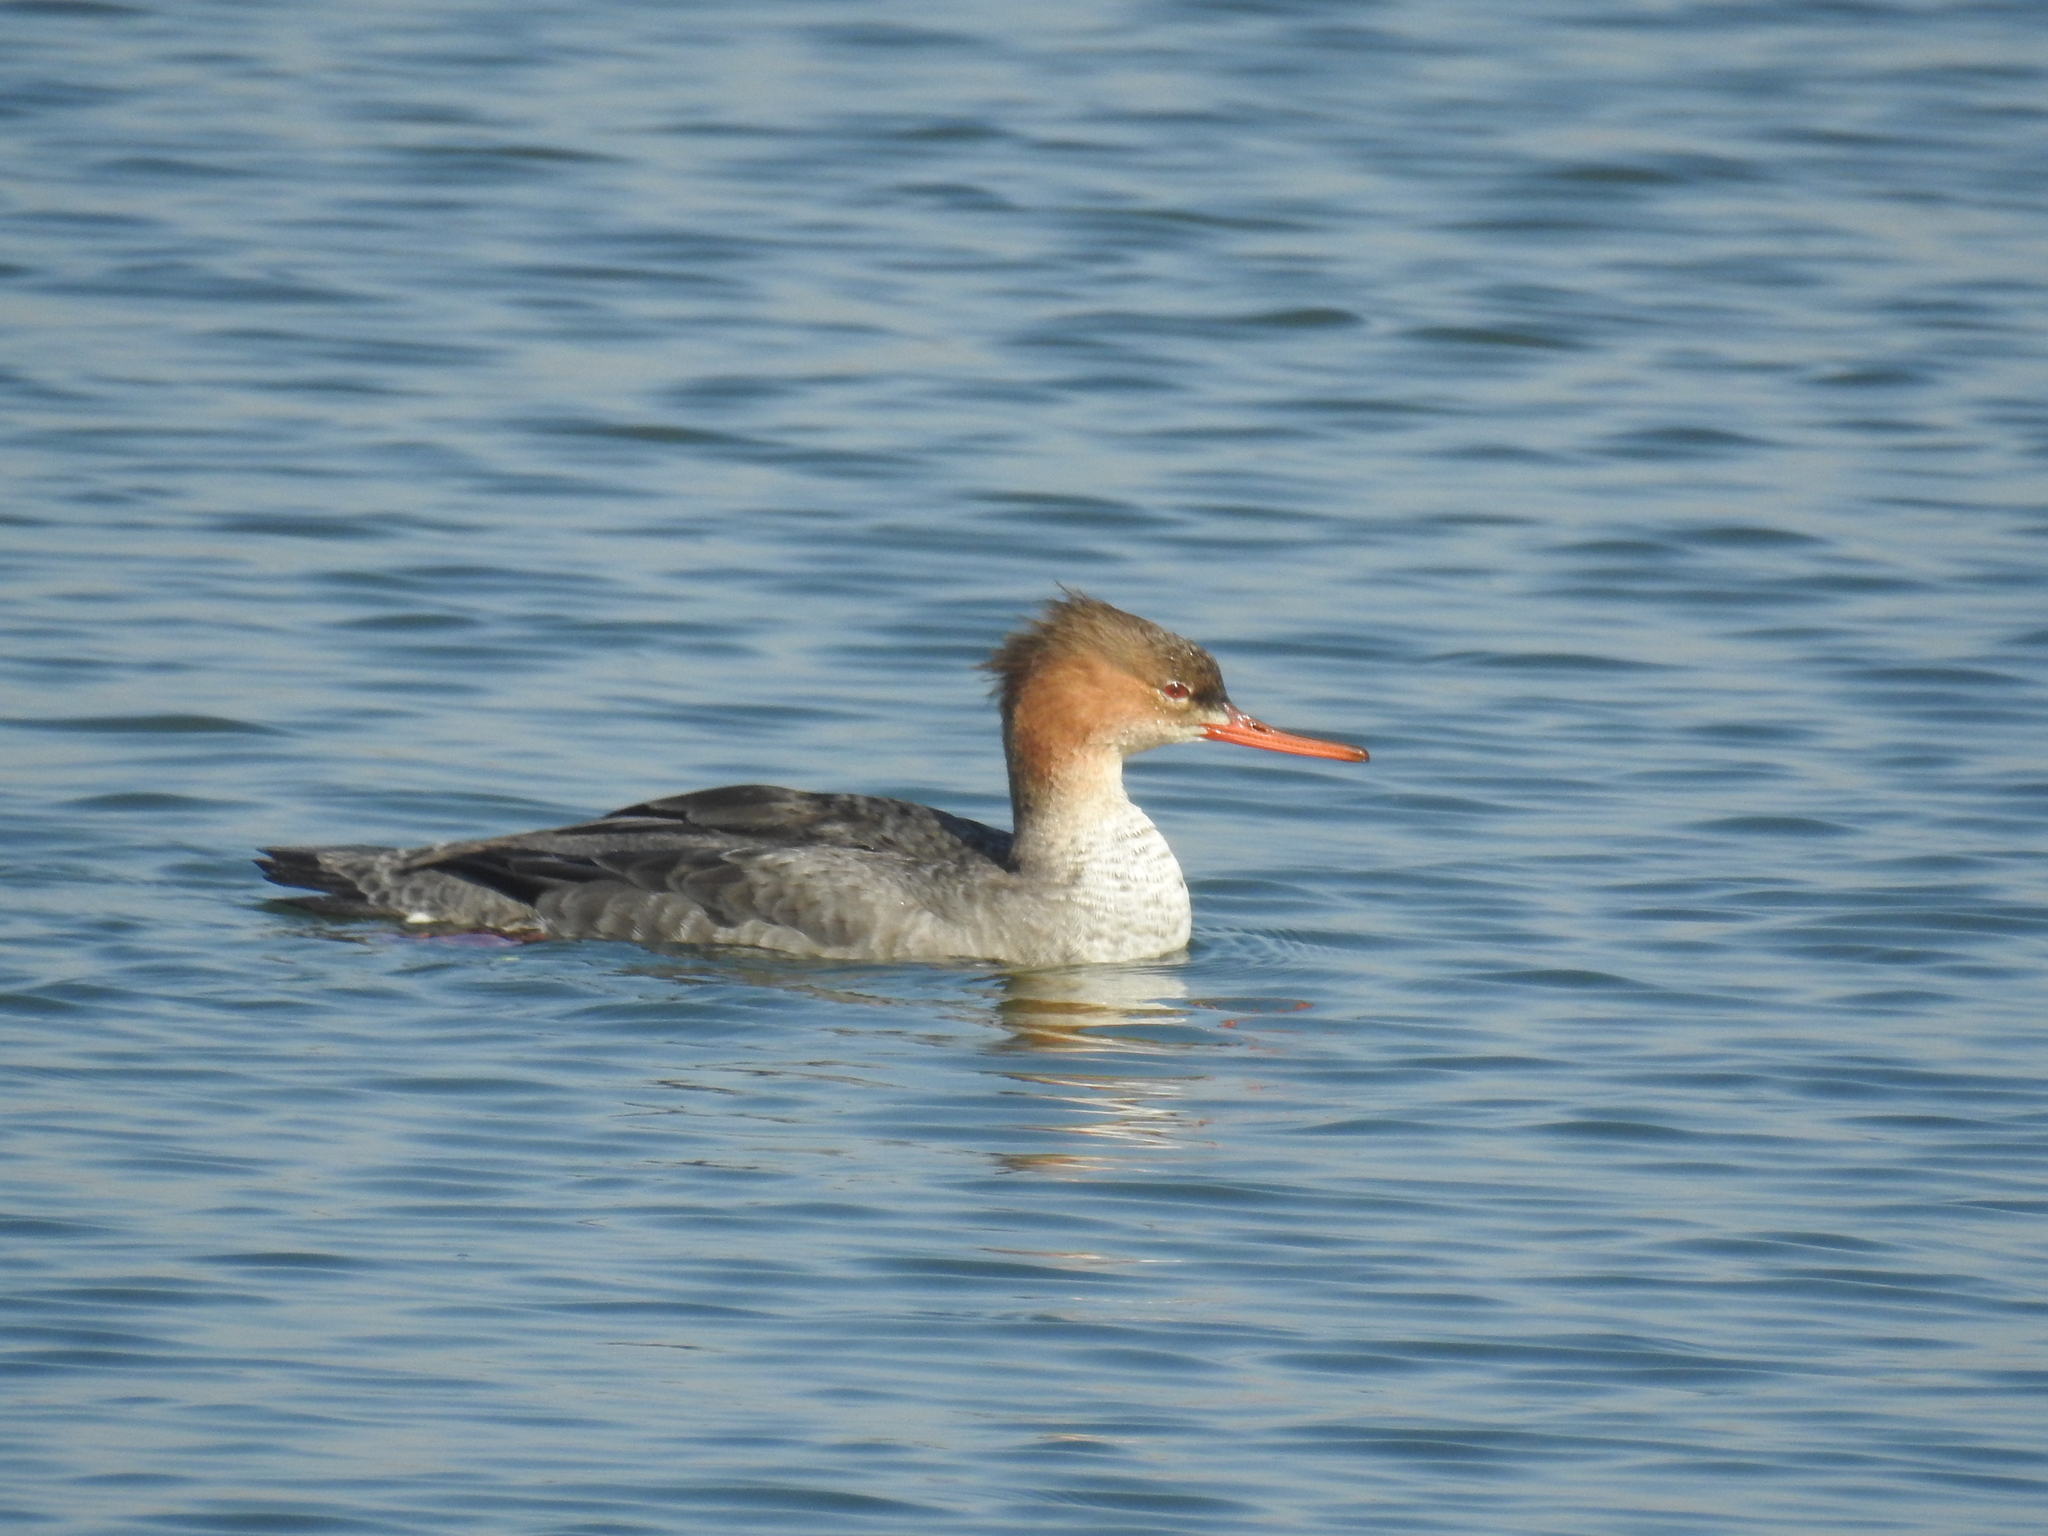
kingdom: Animalia
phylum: Chordata
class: Aves
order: Anseriformes
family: Anatidae
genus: Mergus
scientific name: Mergus serrator
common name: Red-breasted merganser
